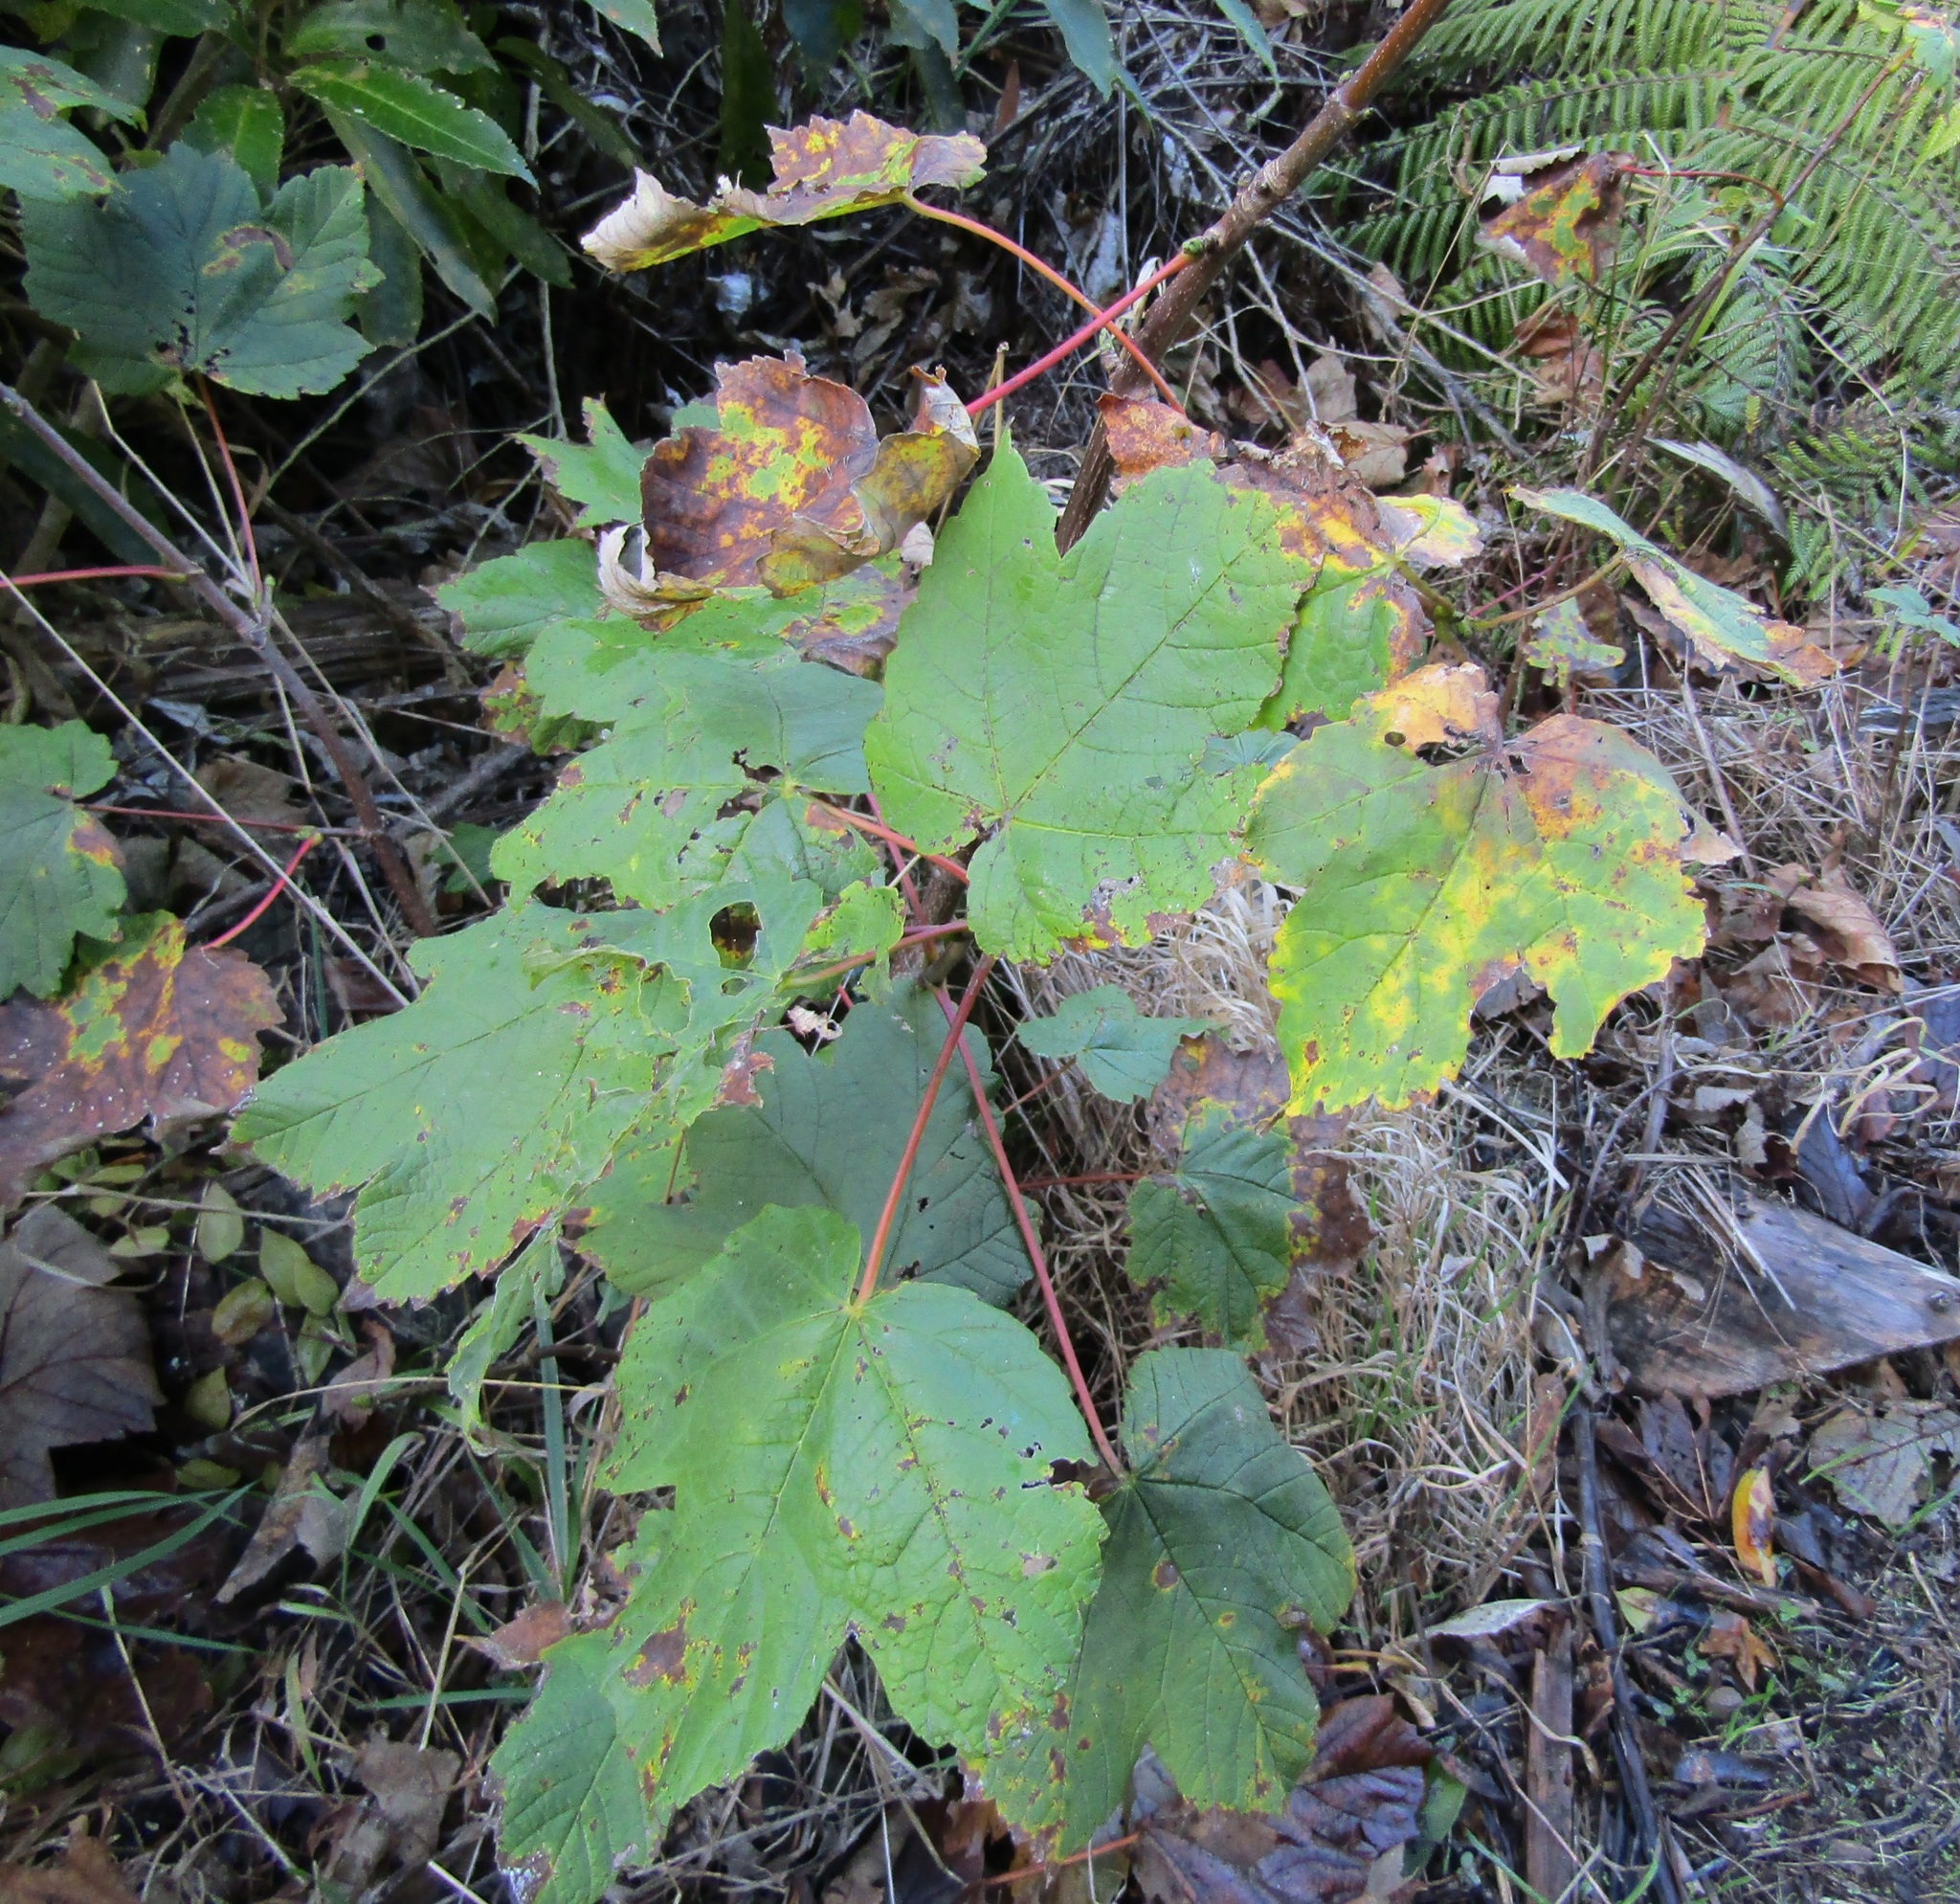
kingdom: Plantae
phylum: Tracheophyta
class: Magnoliopsida
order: Sapindales
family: Sapindaceae
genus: Acer
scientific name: Acer pseudoplatanus
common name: Sycamore
